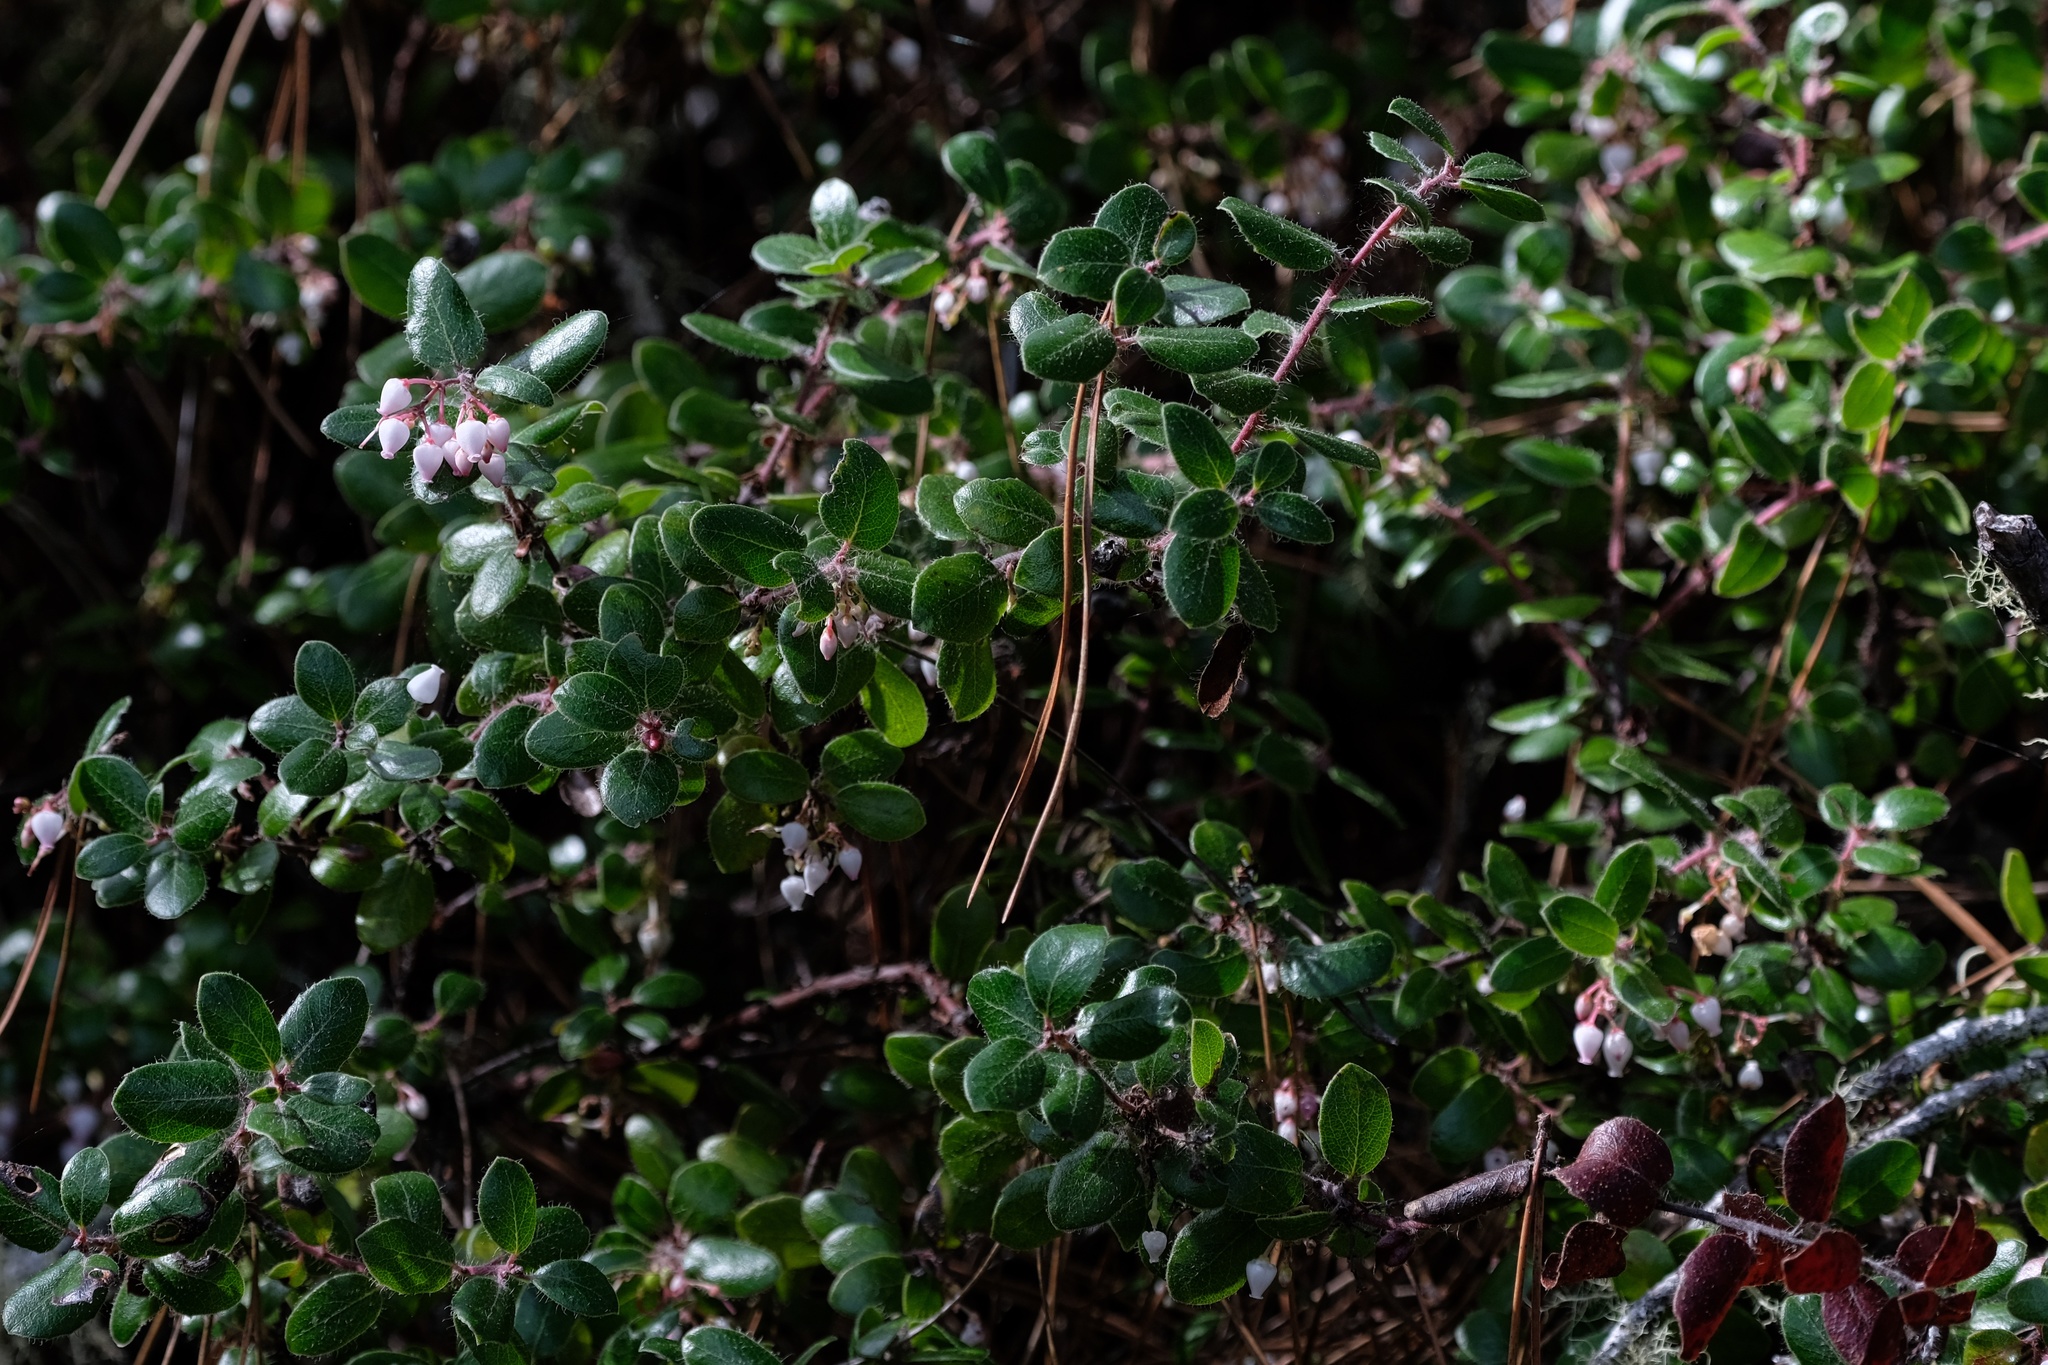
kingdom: Plantae
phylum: Tracheophyta
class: Magnoliopsida
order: Ericales
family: Ericaceae
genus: Arctostaphylos
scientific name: Arctostaphylos nummularia
